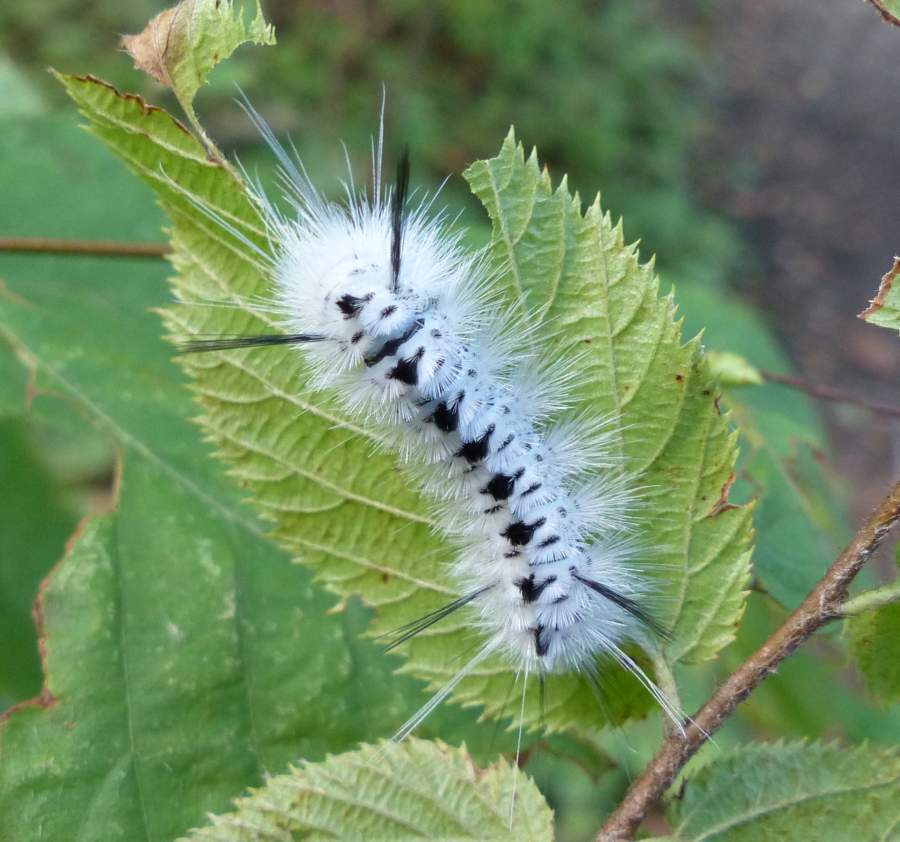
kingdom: Animalia
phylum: Arthropoda
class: Insecta
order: Lepidoptera
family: Erebidae
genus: Lophocampa
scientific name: Lophocampa caryae
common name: Hickory tussock moth
